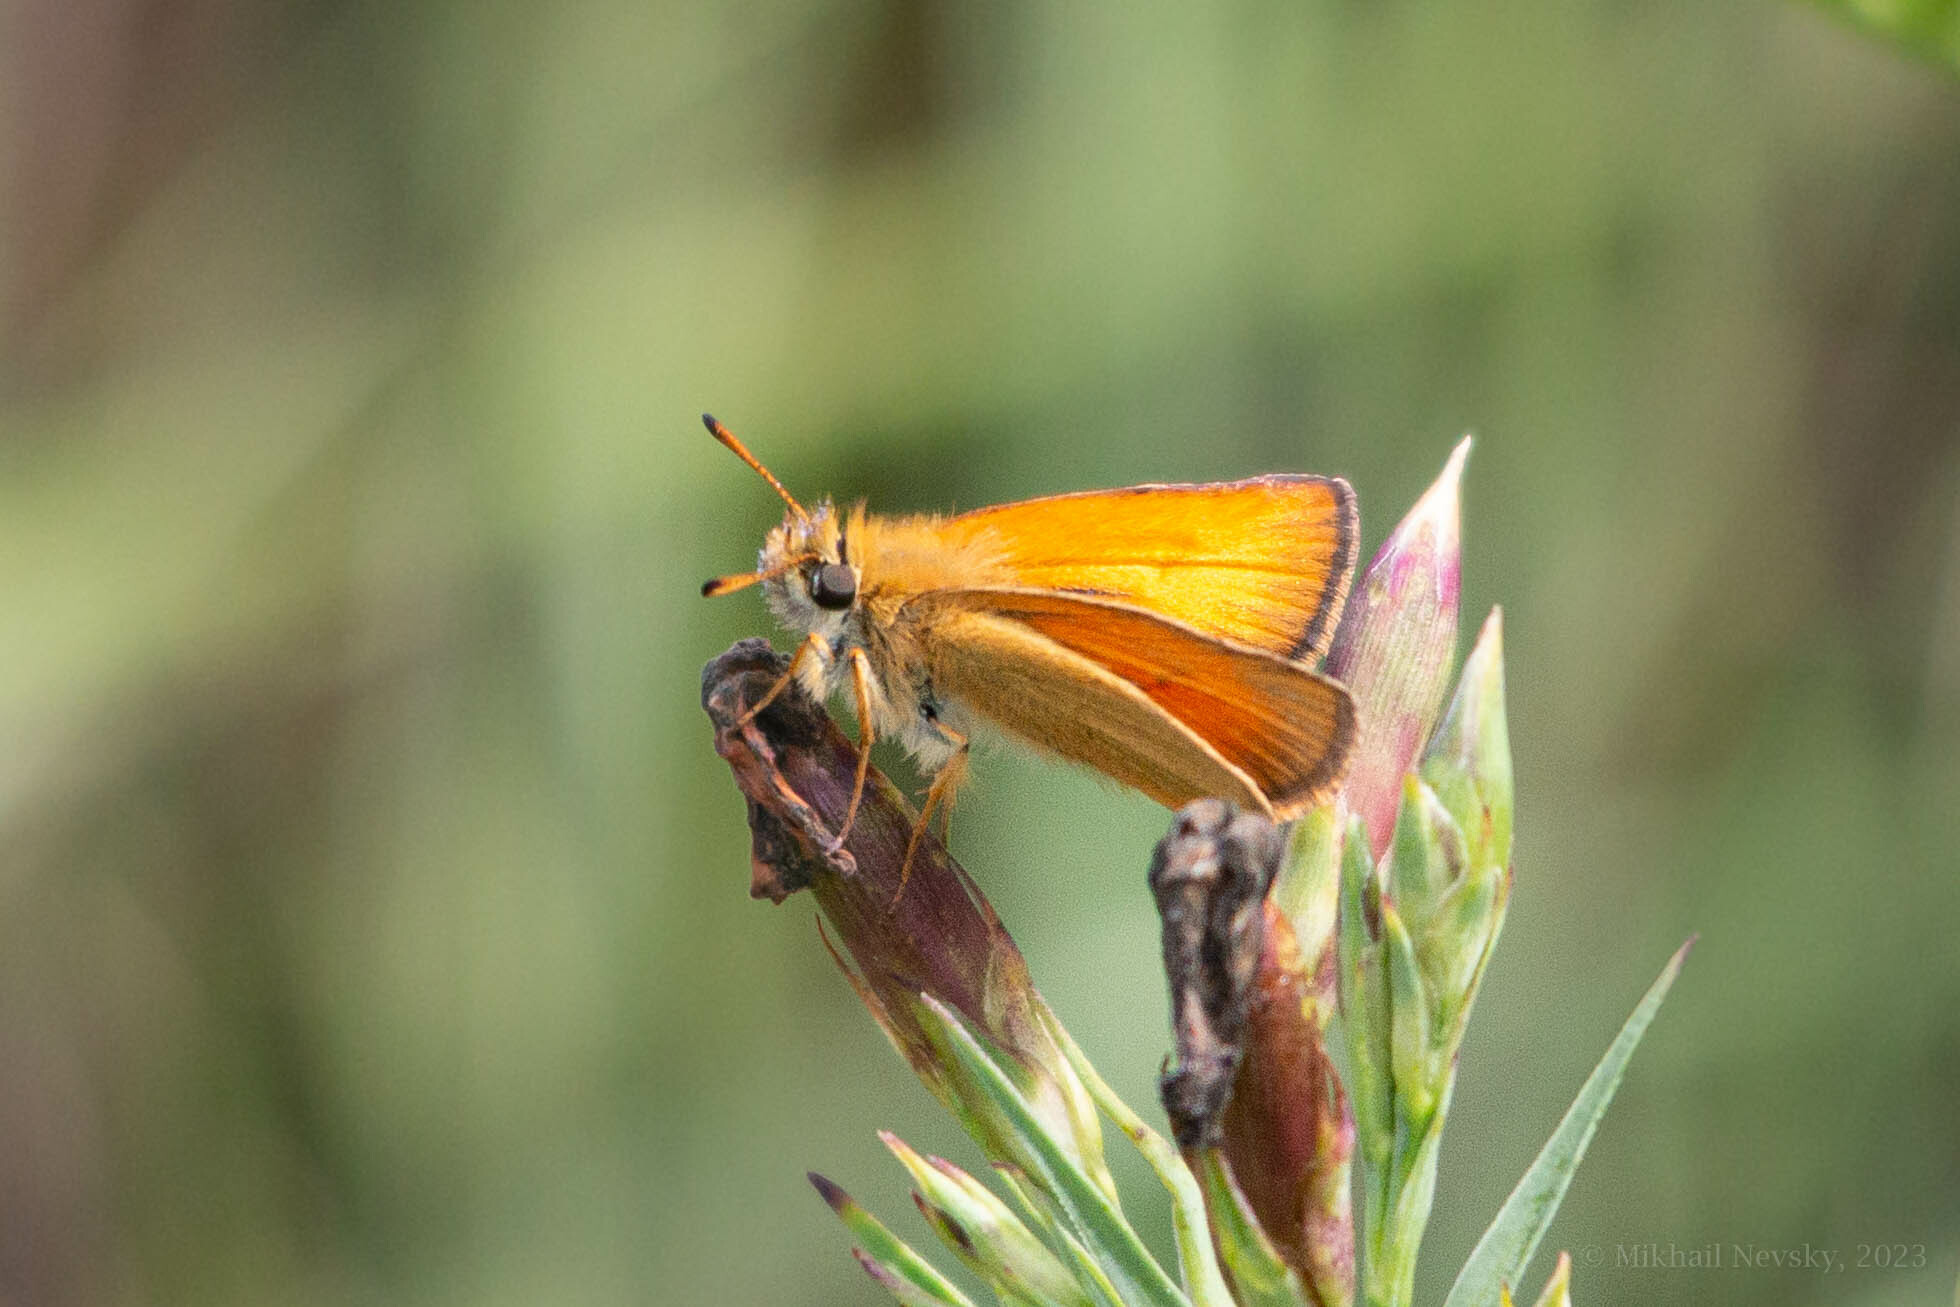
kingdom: Animalia
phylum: Arthropoda
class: Insecta
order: Lepidoptera
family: Hesperiidae
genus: Thymelicus
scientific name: Thymelicus lineola
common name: Essex skipper
